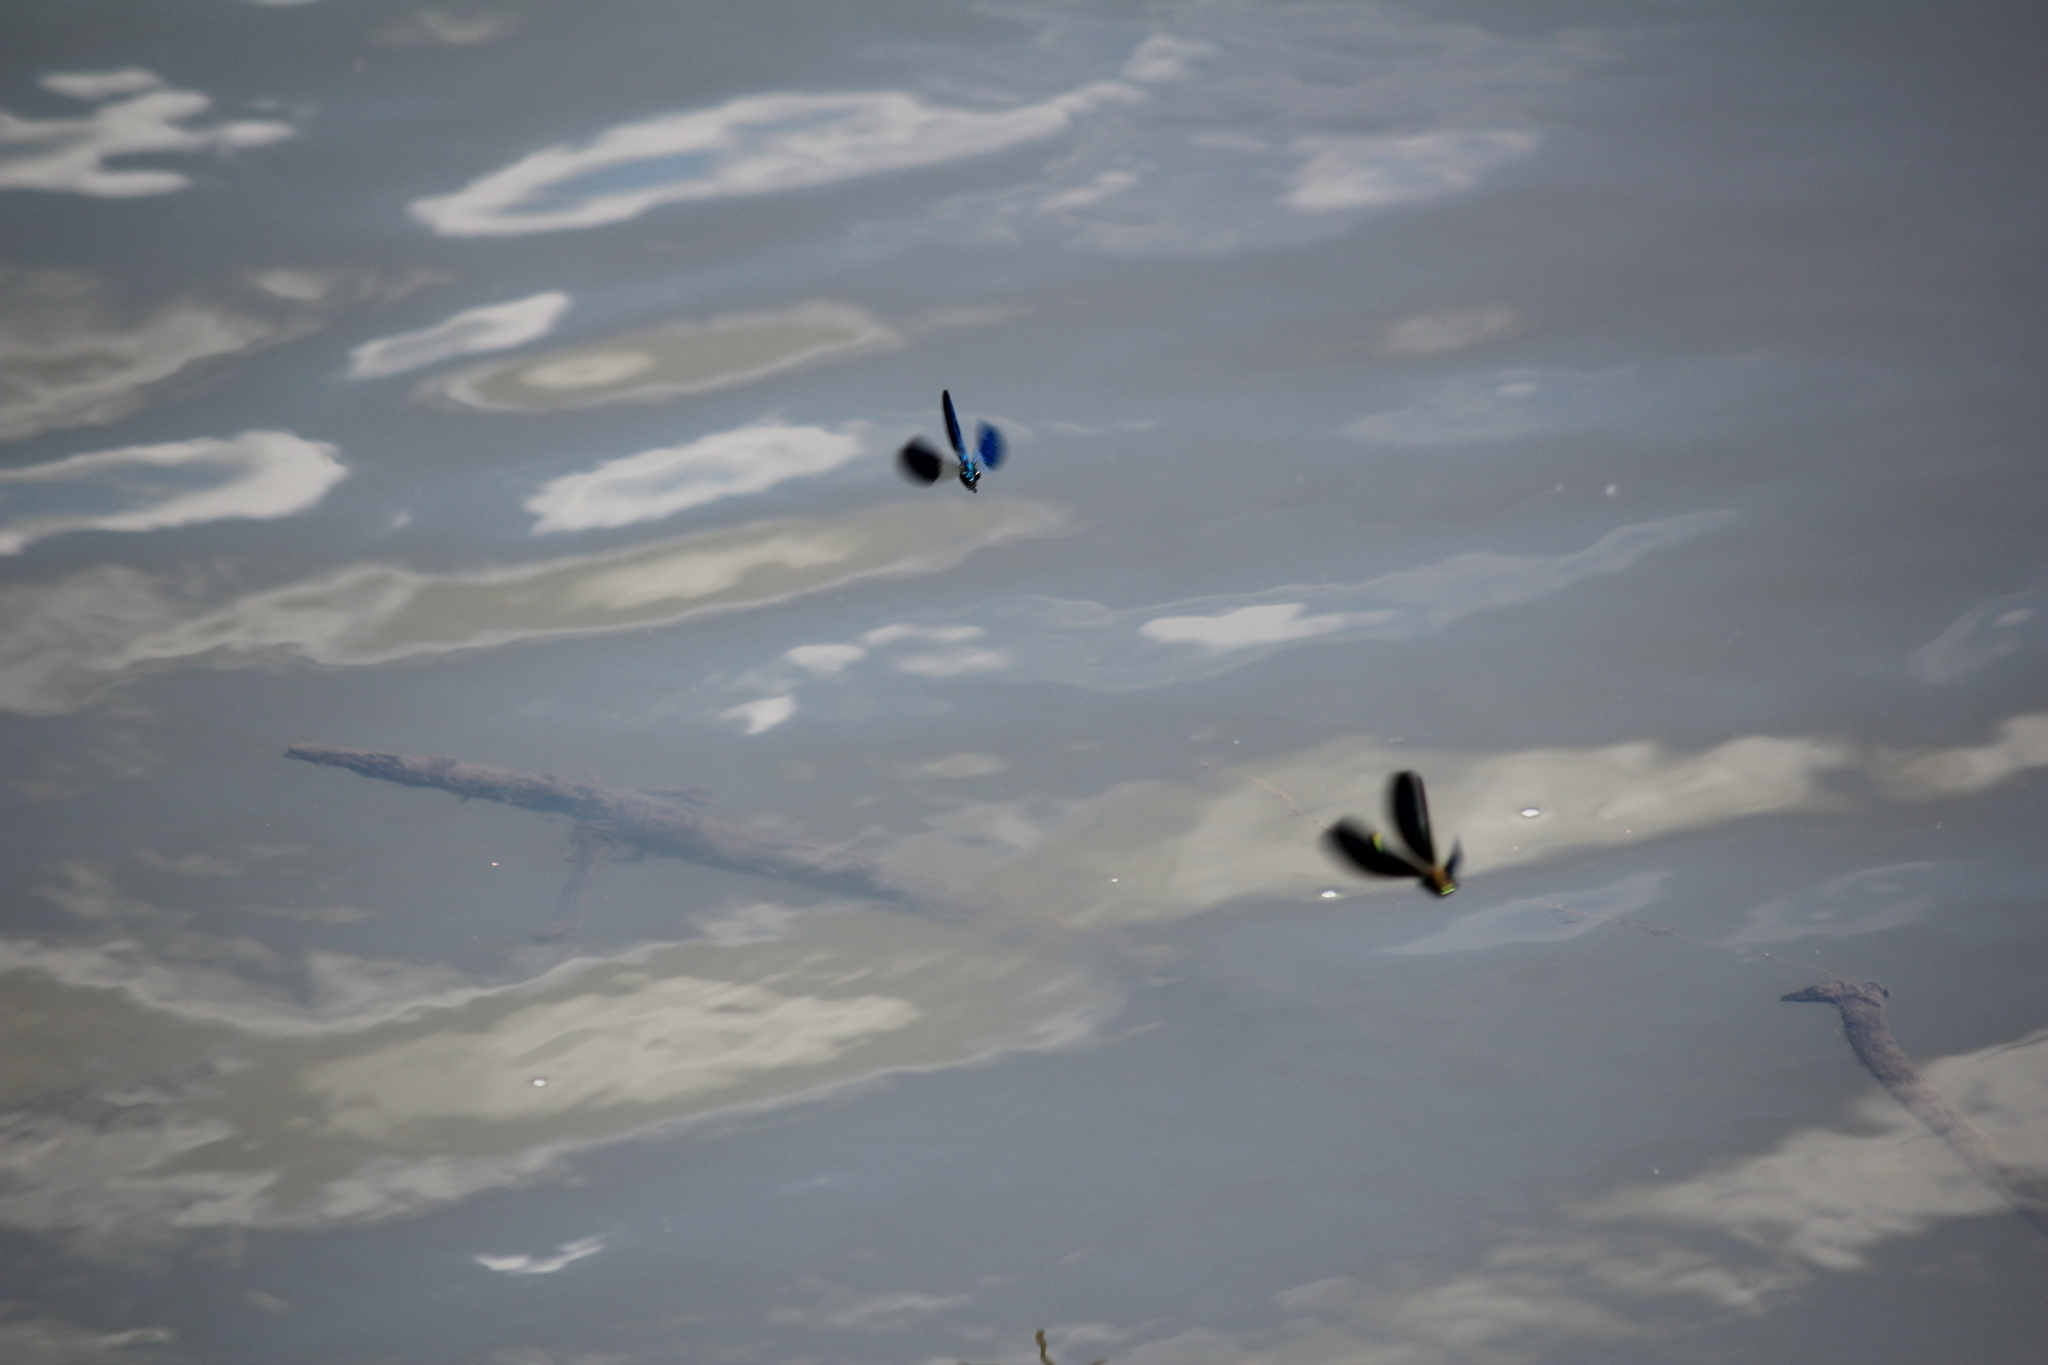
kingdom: Animalia
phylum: Arthropoda
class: Insecta
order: Odonata
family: Calopterygidae
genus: Calopteryx
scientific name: Calopteryx splendens
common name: Banded demoiselle
